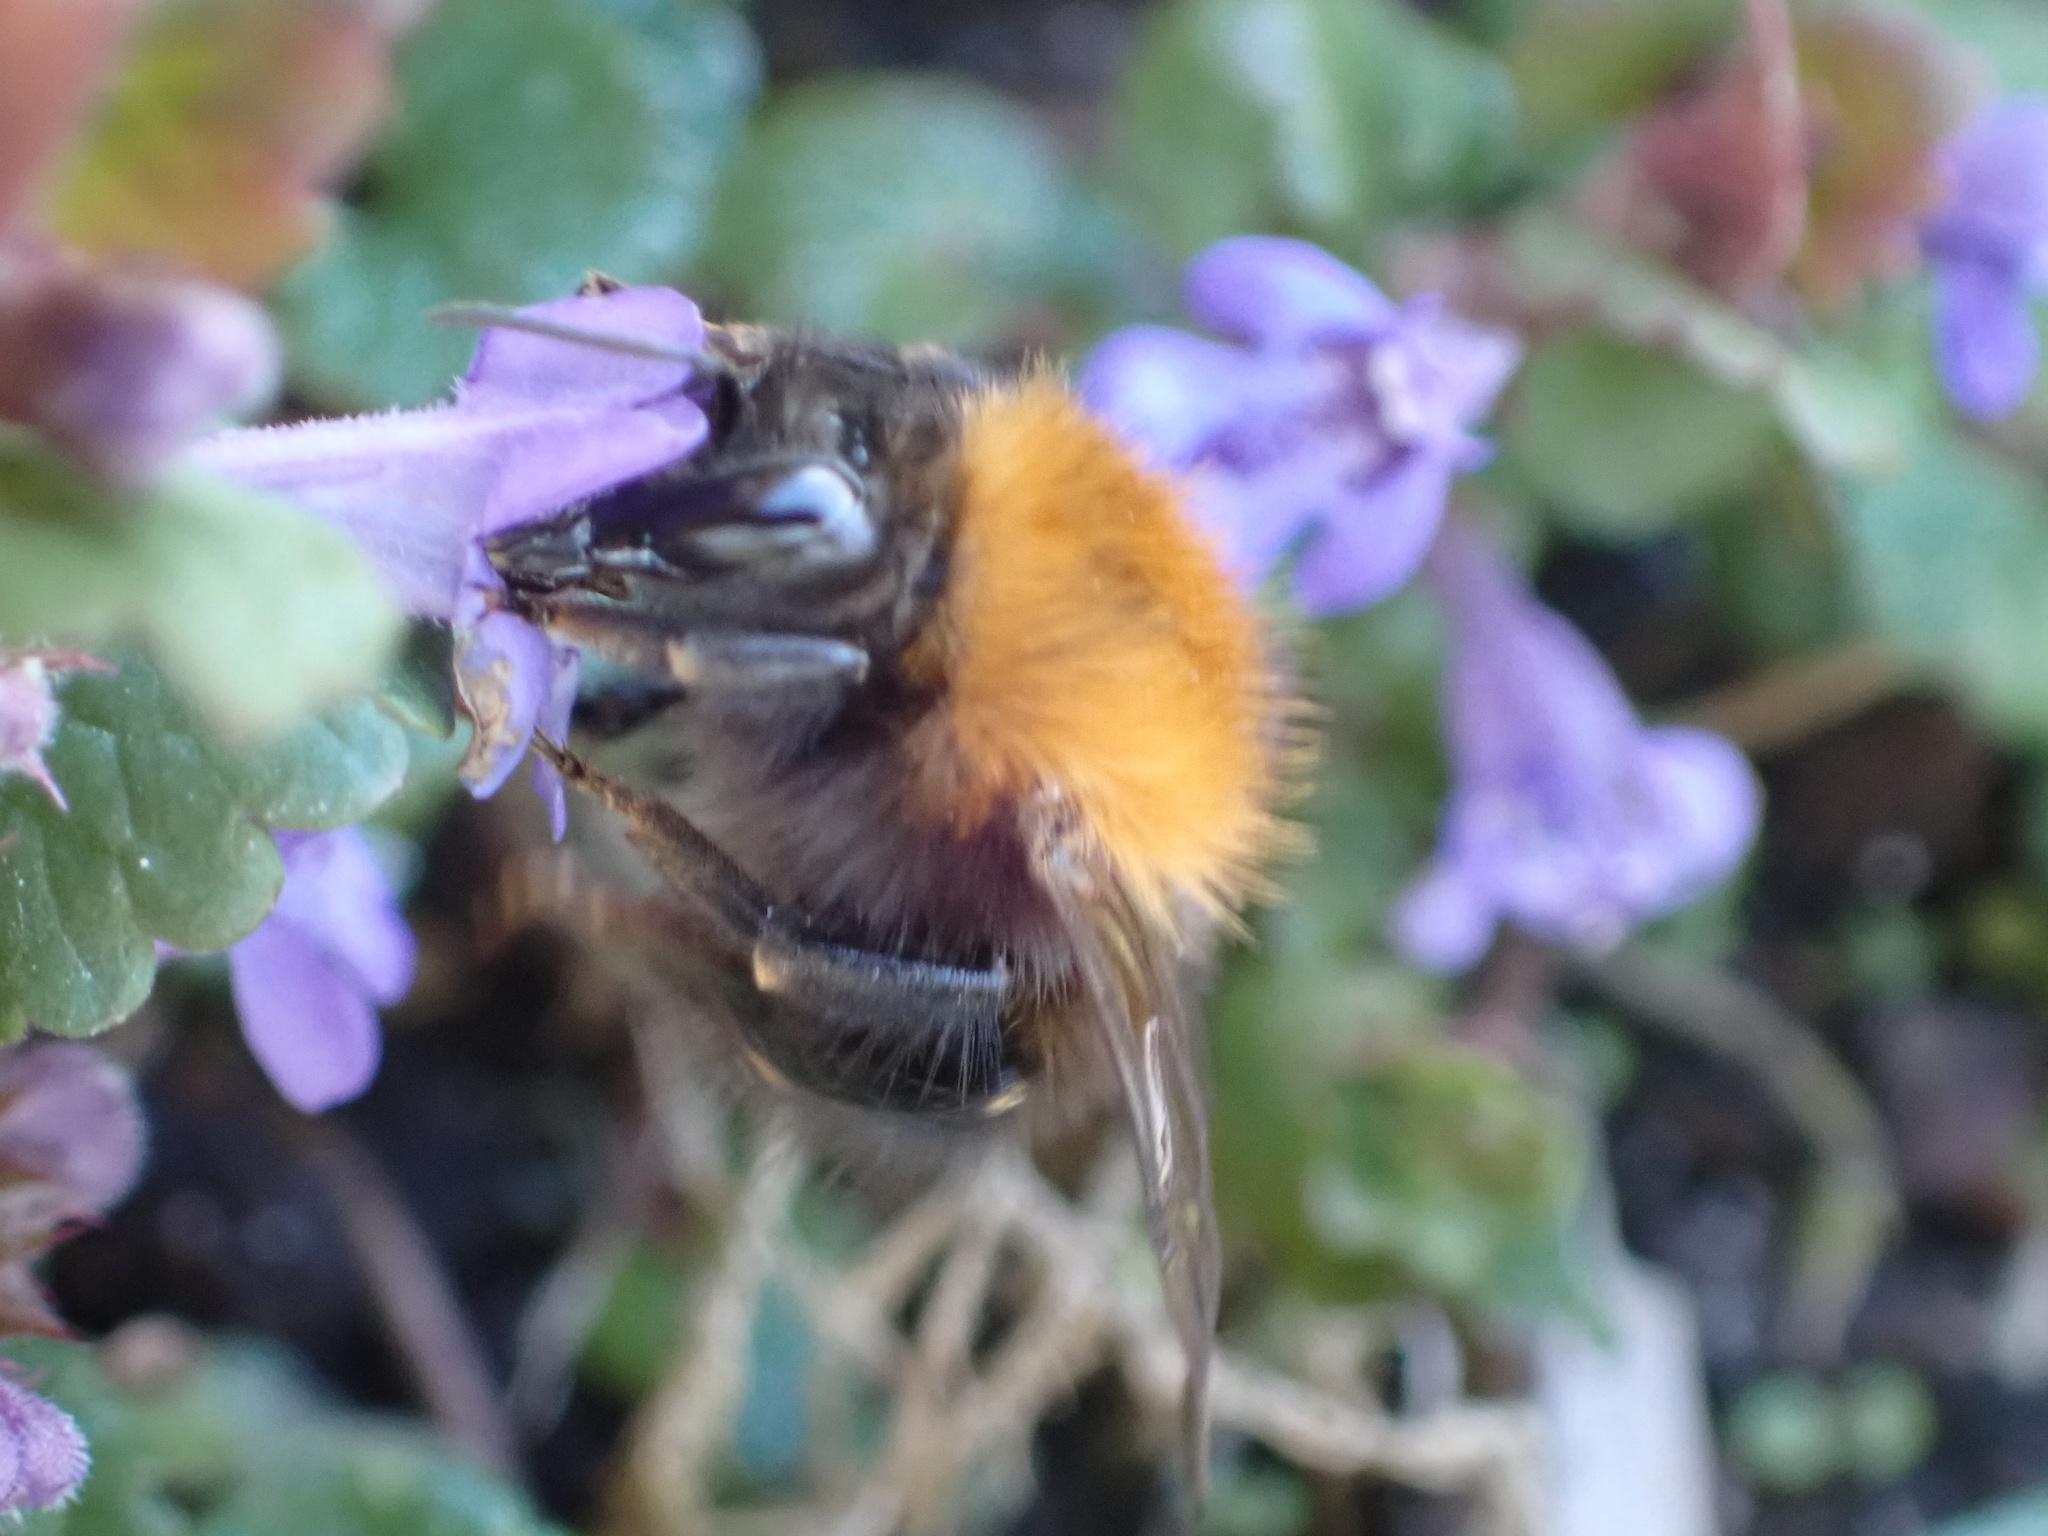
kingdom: Animalia
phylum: Arthropoda
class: Insecta
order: Hymenoptera
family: Apidae
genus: Bombus
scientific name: Bombus pascuorum
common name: Common carder bee
